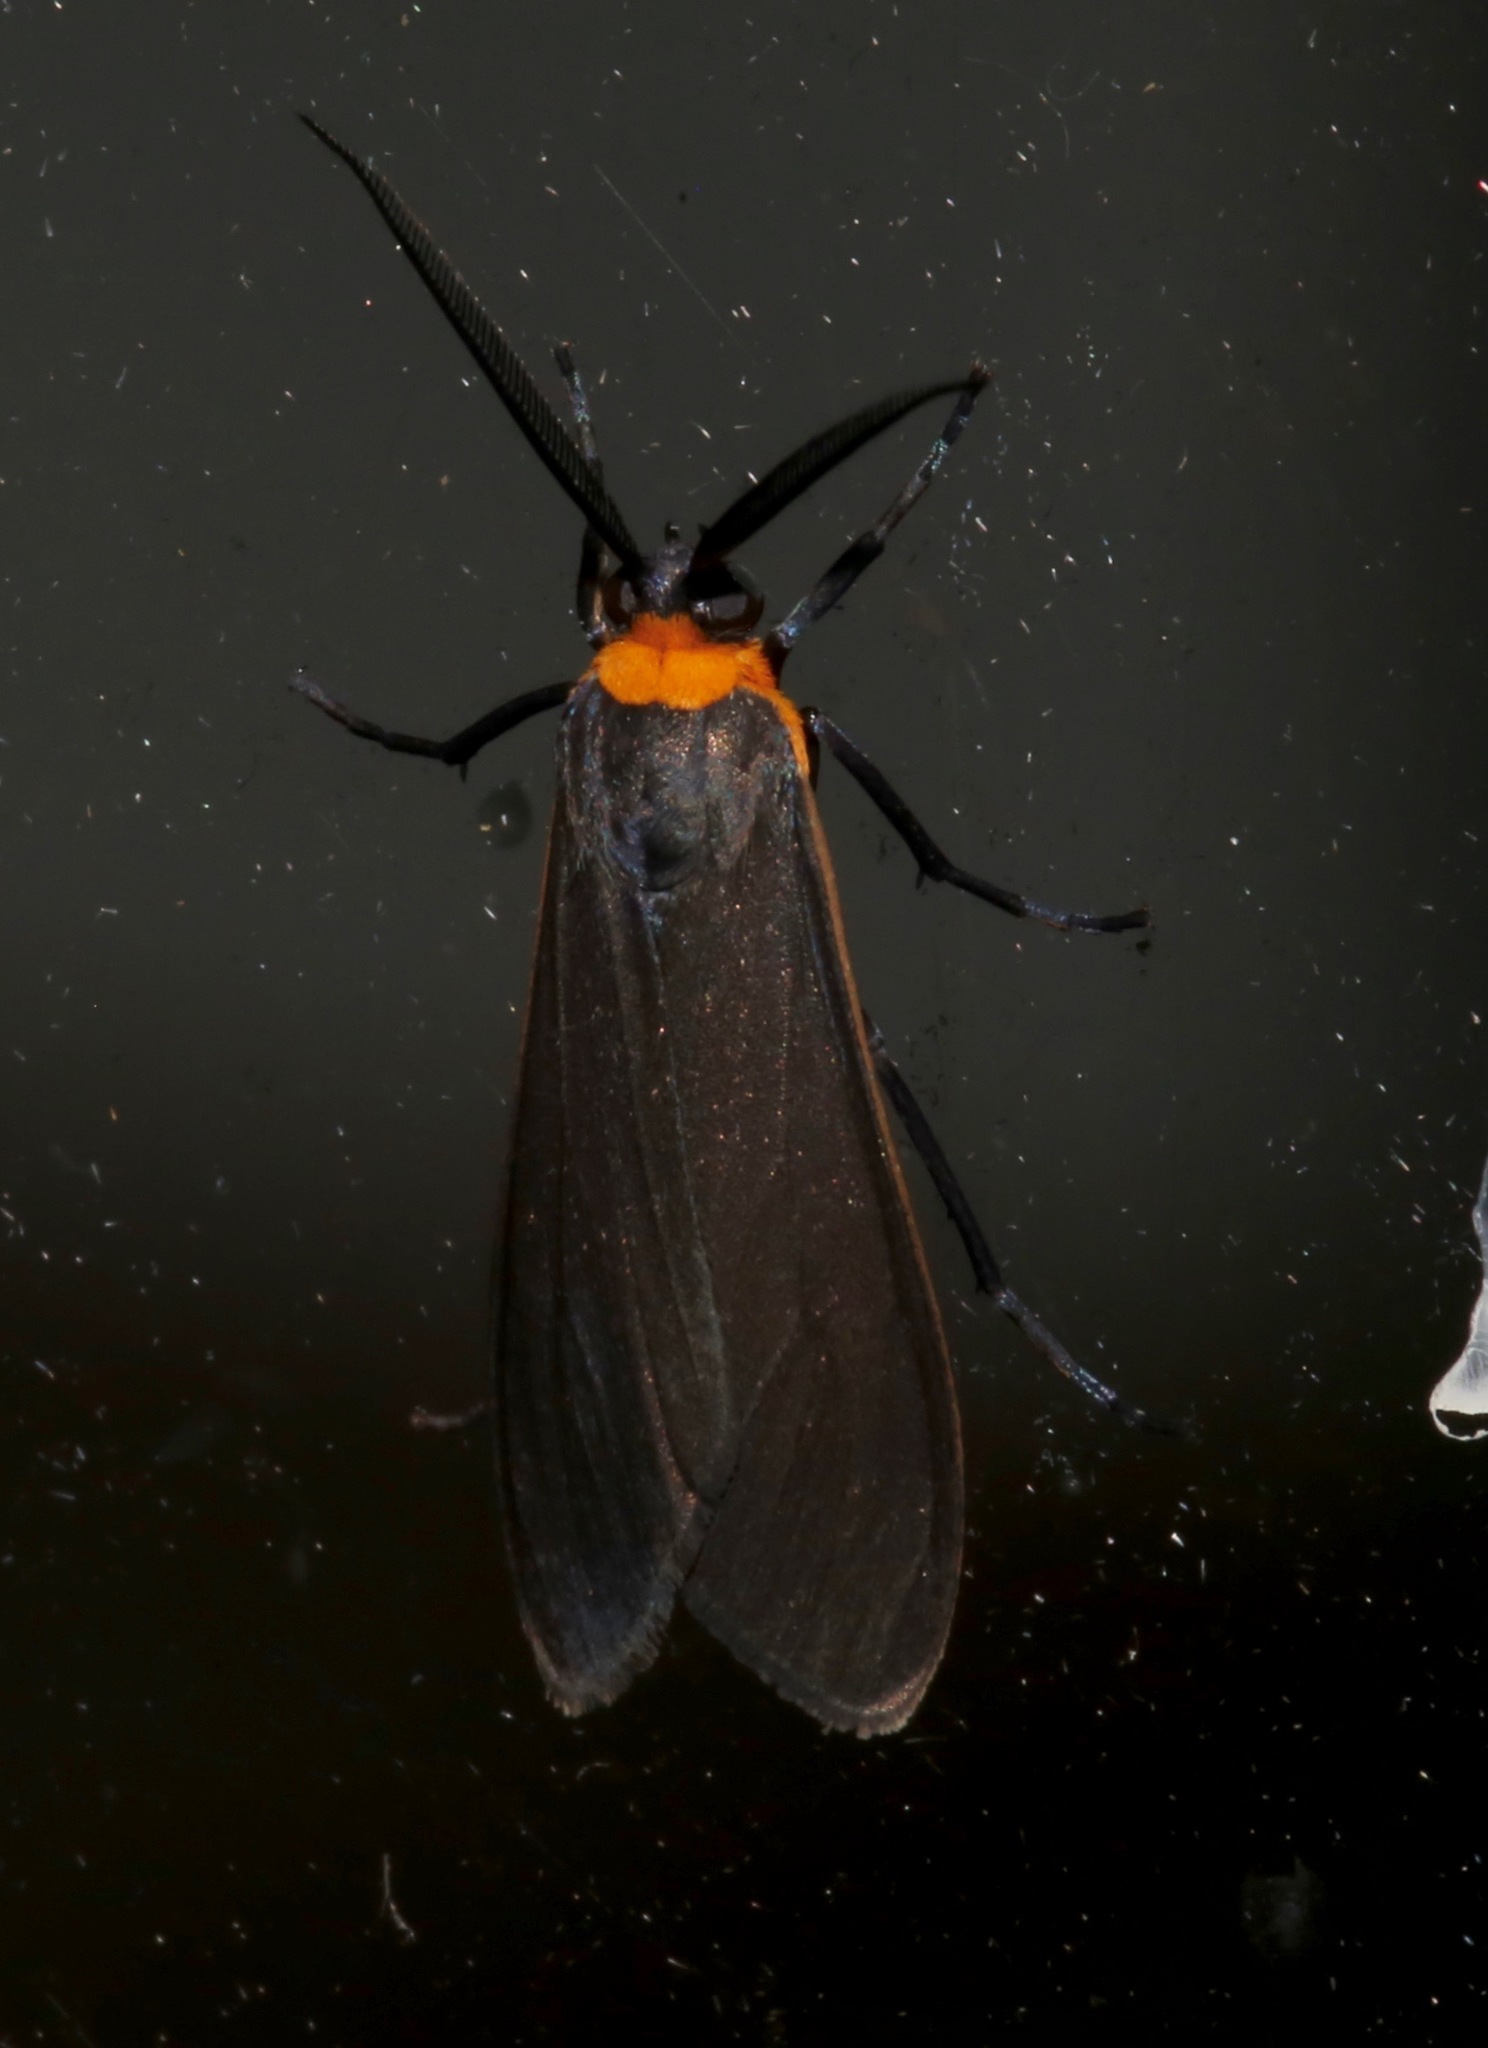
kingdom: Animalia
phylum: Arthropoda
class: Insecta
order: Lepidoptera
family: Erebidae
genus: Cisseps
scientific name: Cisseps fulvicollis
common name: Yellow-collared scape moth
